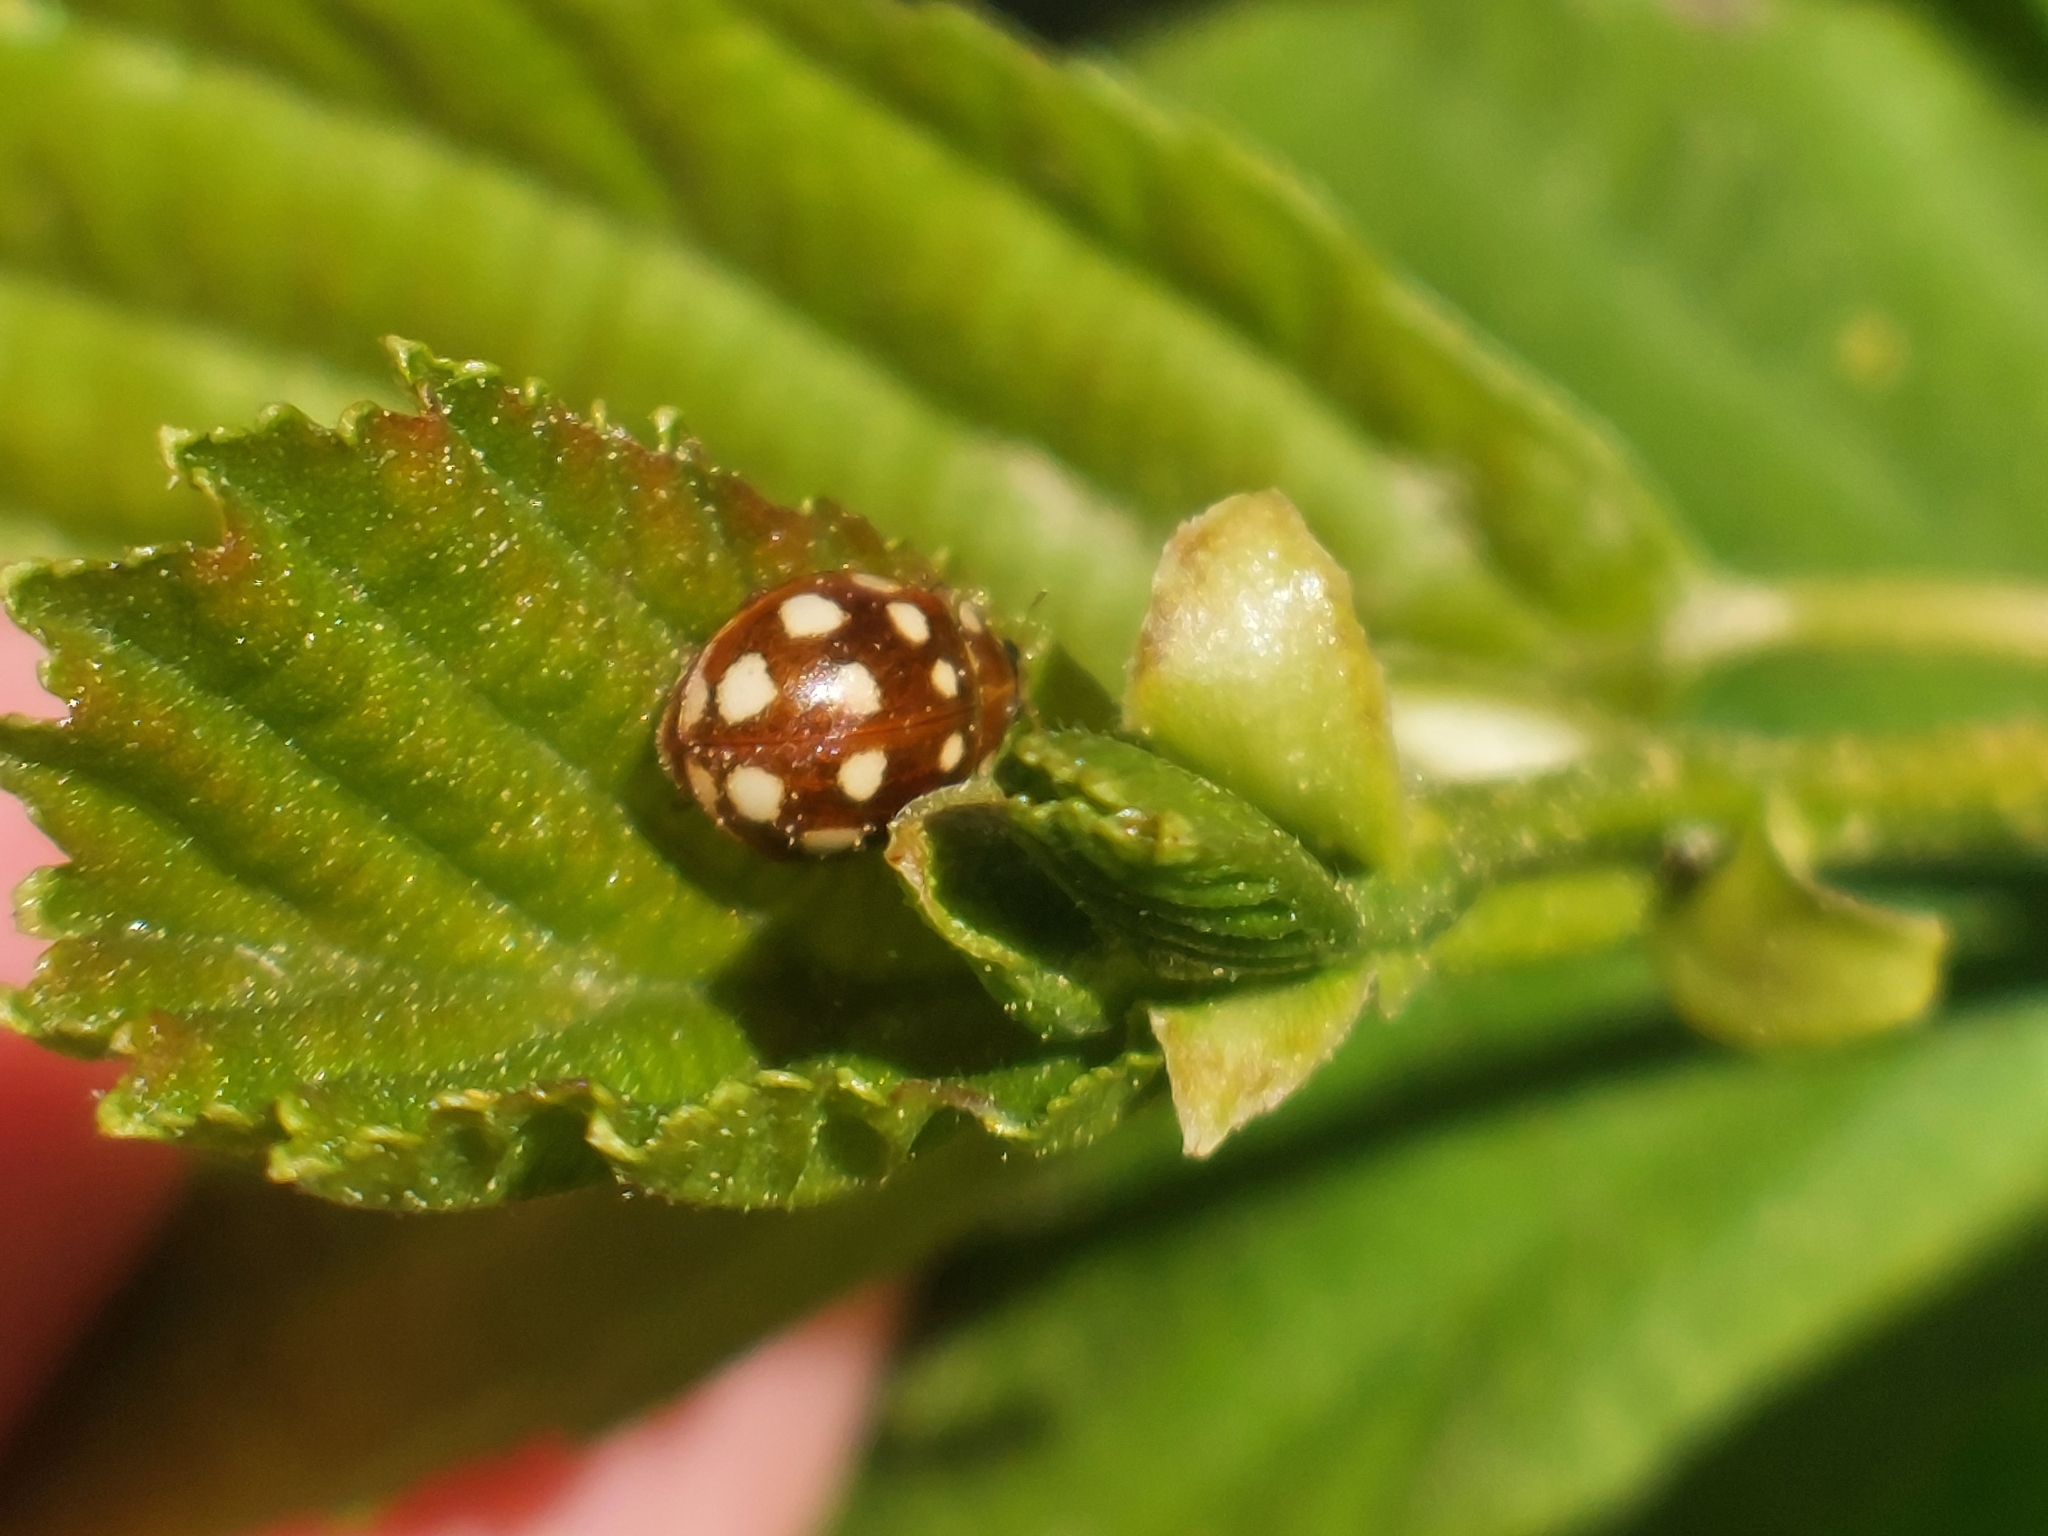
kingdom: Animalia
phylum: Arthropoda
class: Insecta
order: Coleoptera
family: Coccinellidae
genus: Calvia
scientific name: Calvia quatuordecimguttata
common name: Cream-spot ladybird
